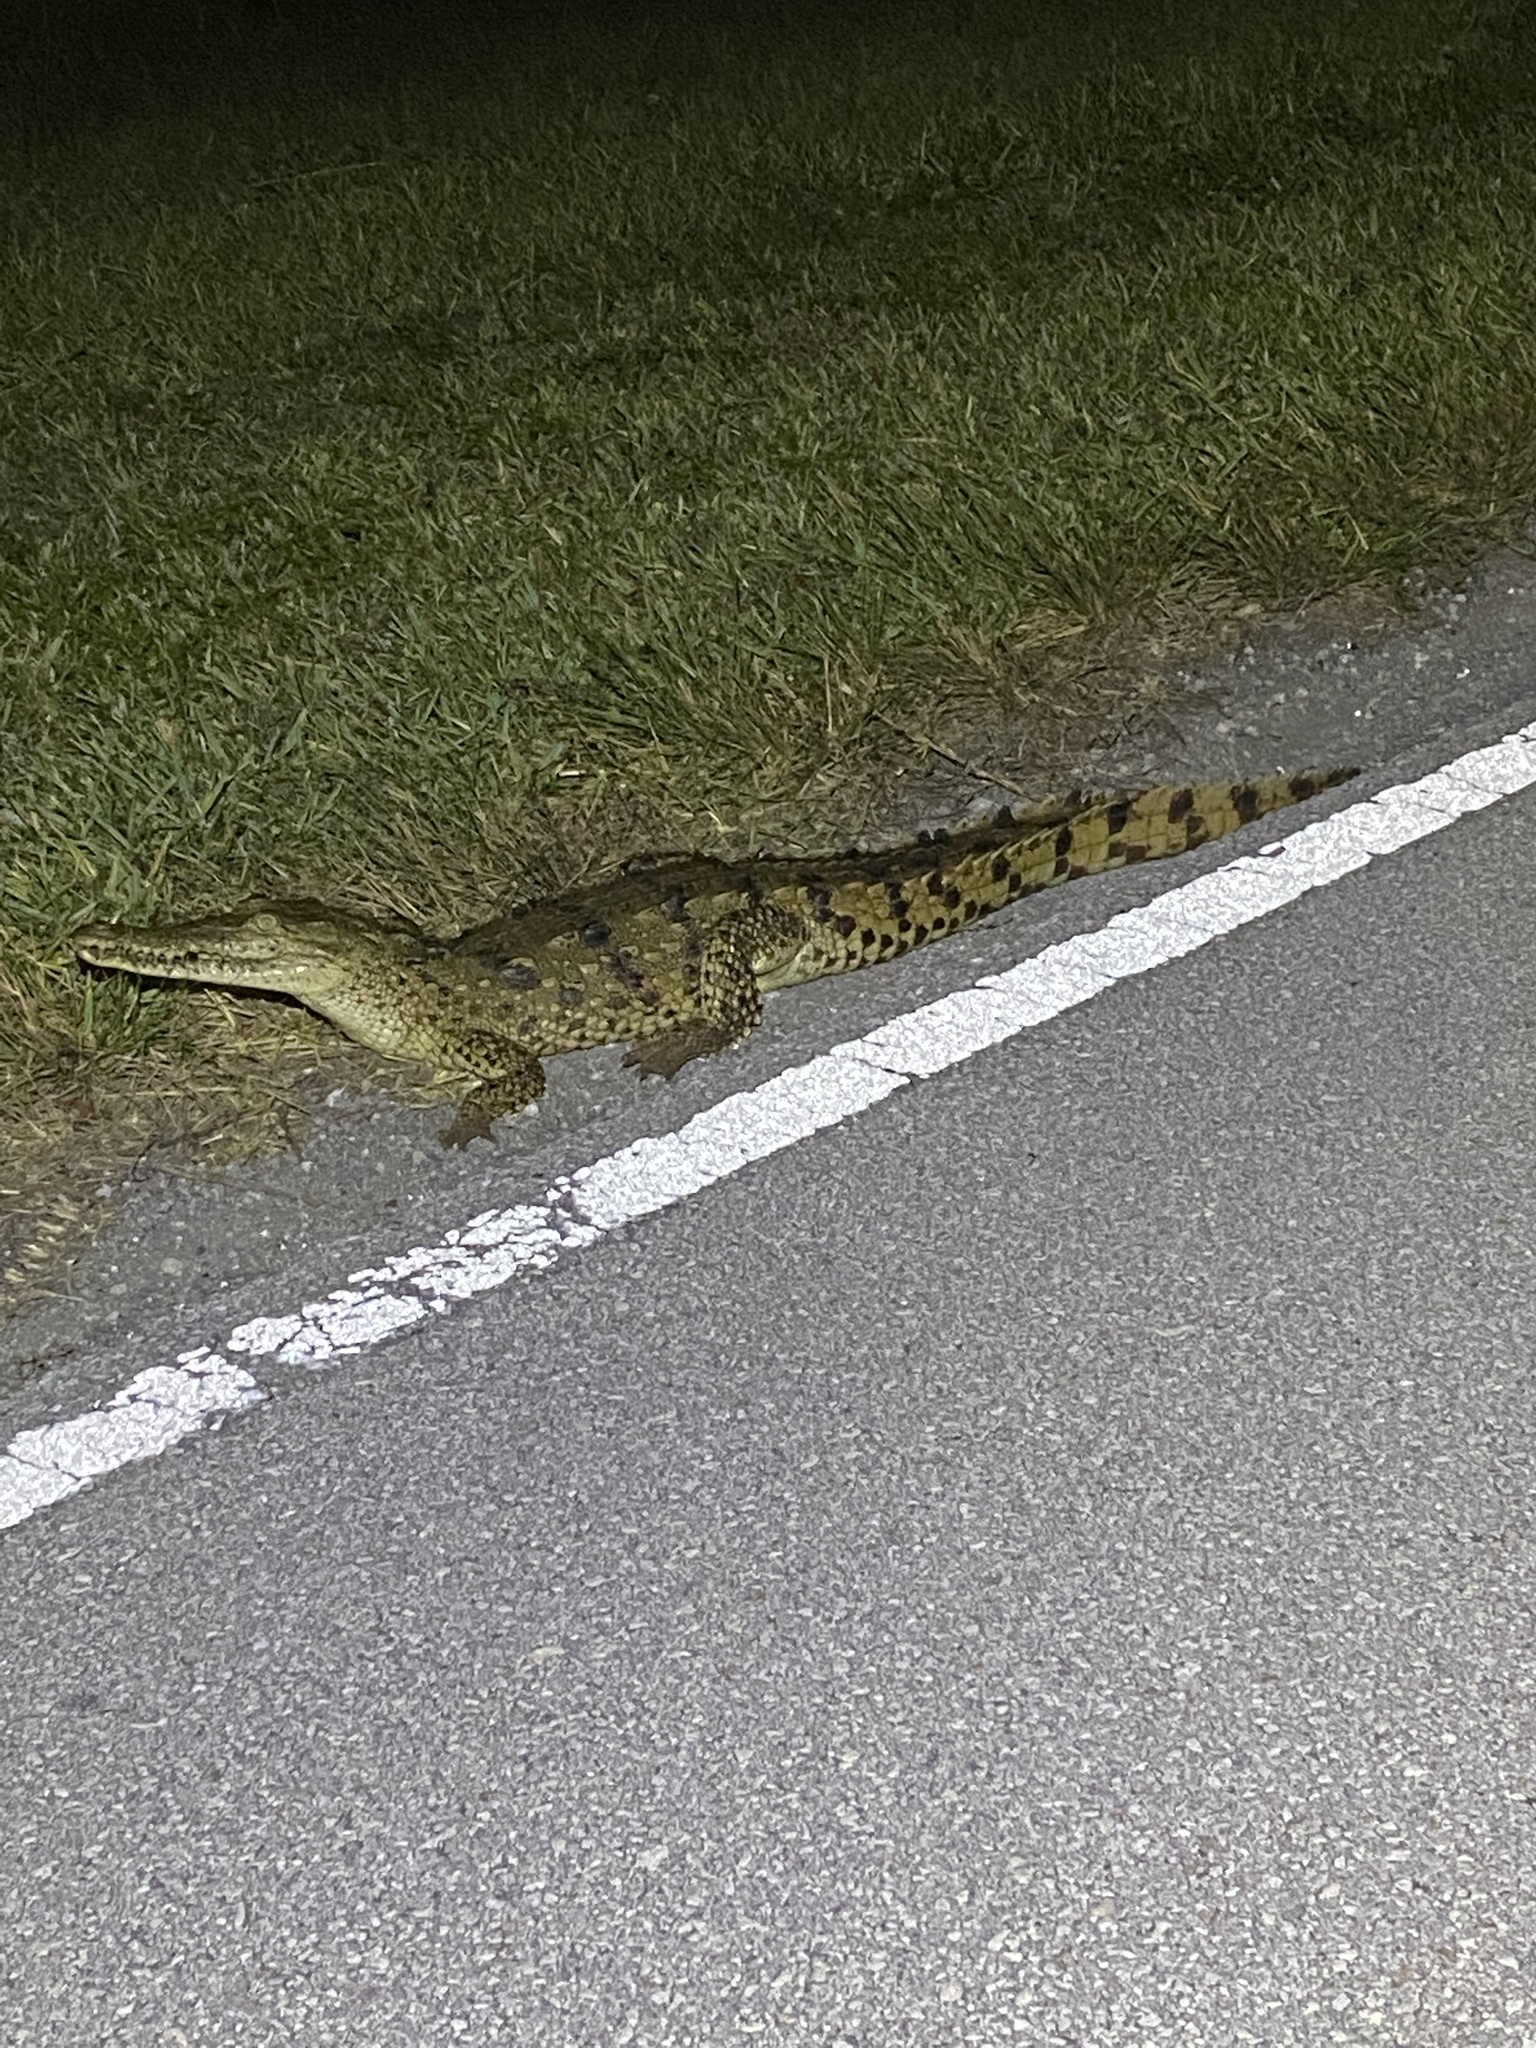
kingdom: Animalia
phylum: Chordata
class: Crocodylia
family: Crocodylidae
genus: Crocodylus
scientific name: Crocodylus acutus
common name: American crocodile
